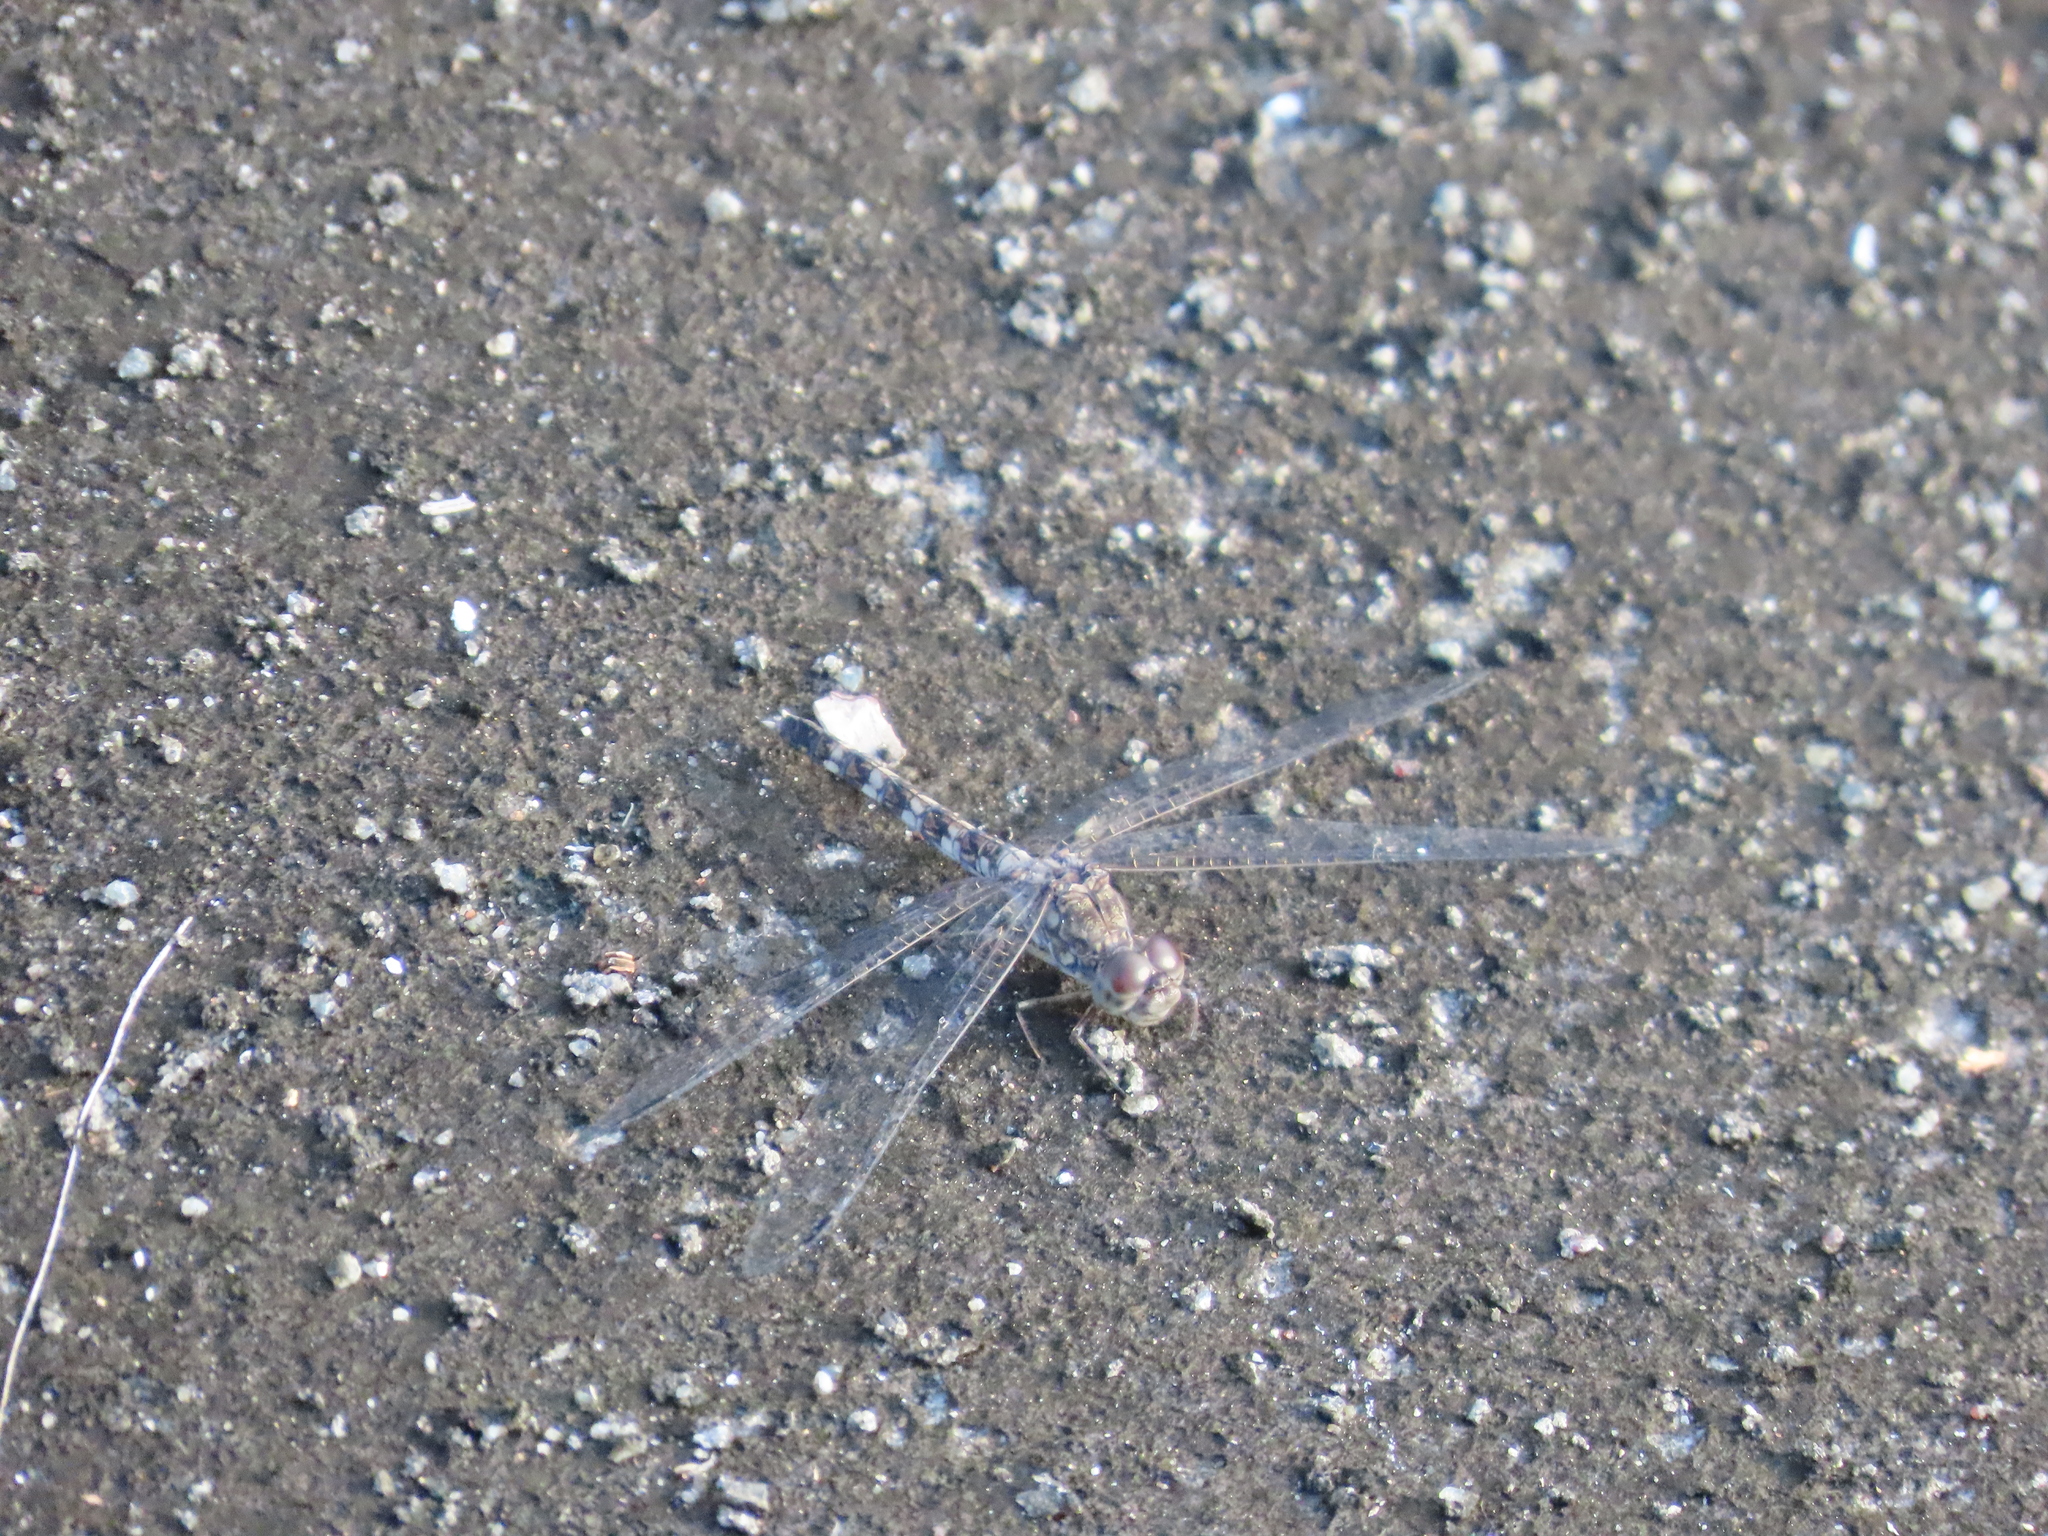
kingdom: Animalia
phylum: Arthropoda
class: Insecta
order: Odonata
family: Libellulidae
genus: Bradinopyga
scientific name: Bradinopyga geminata
